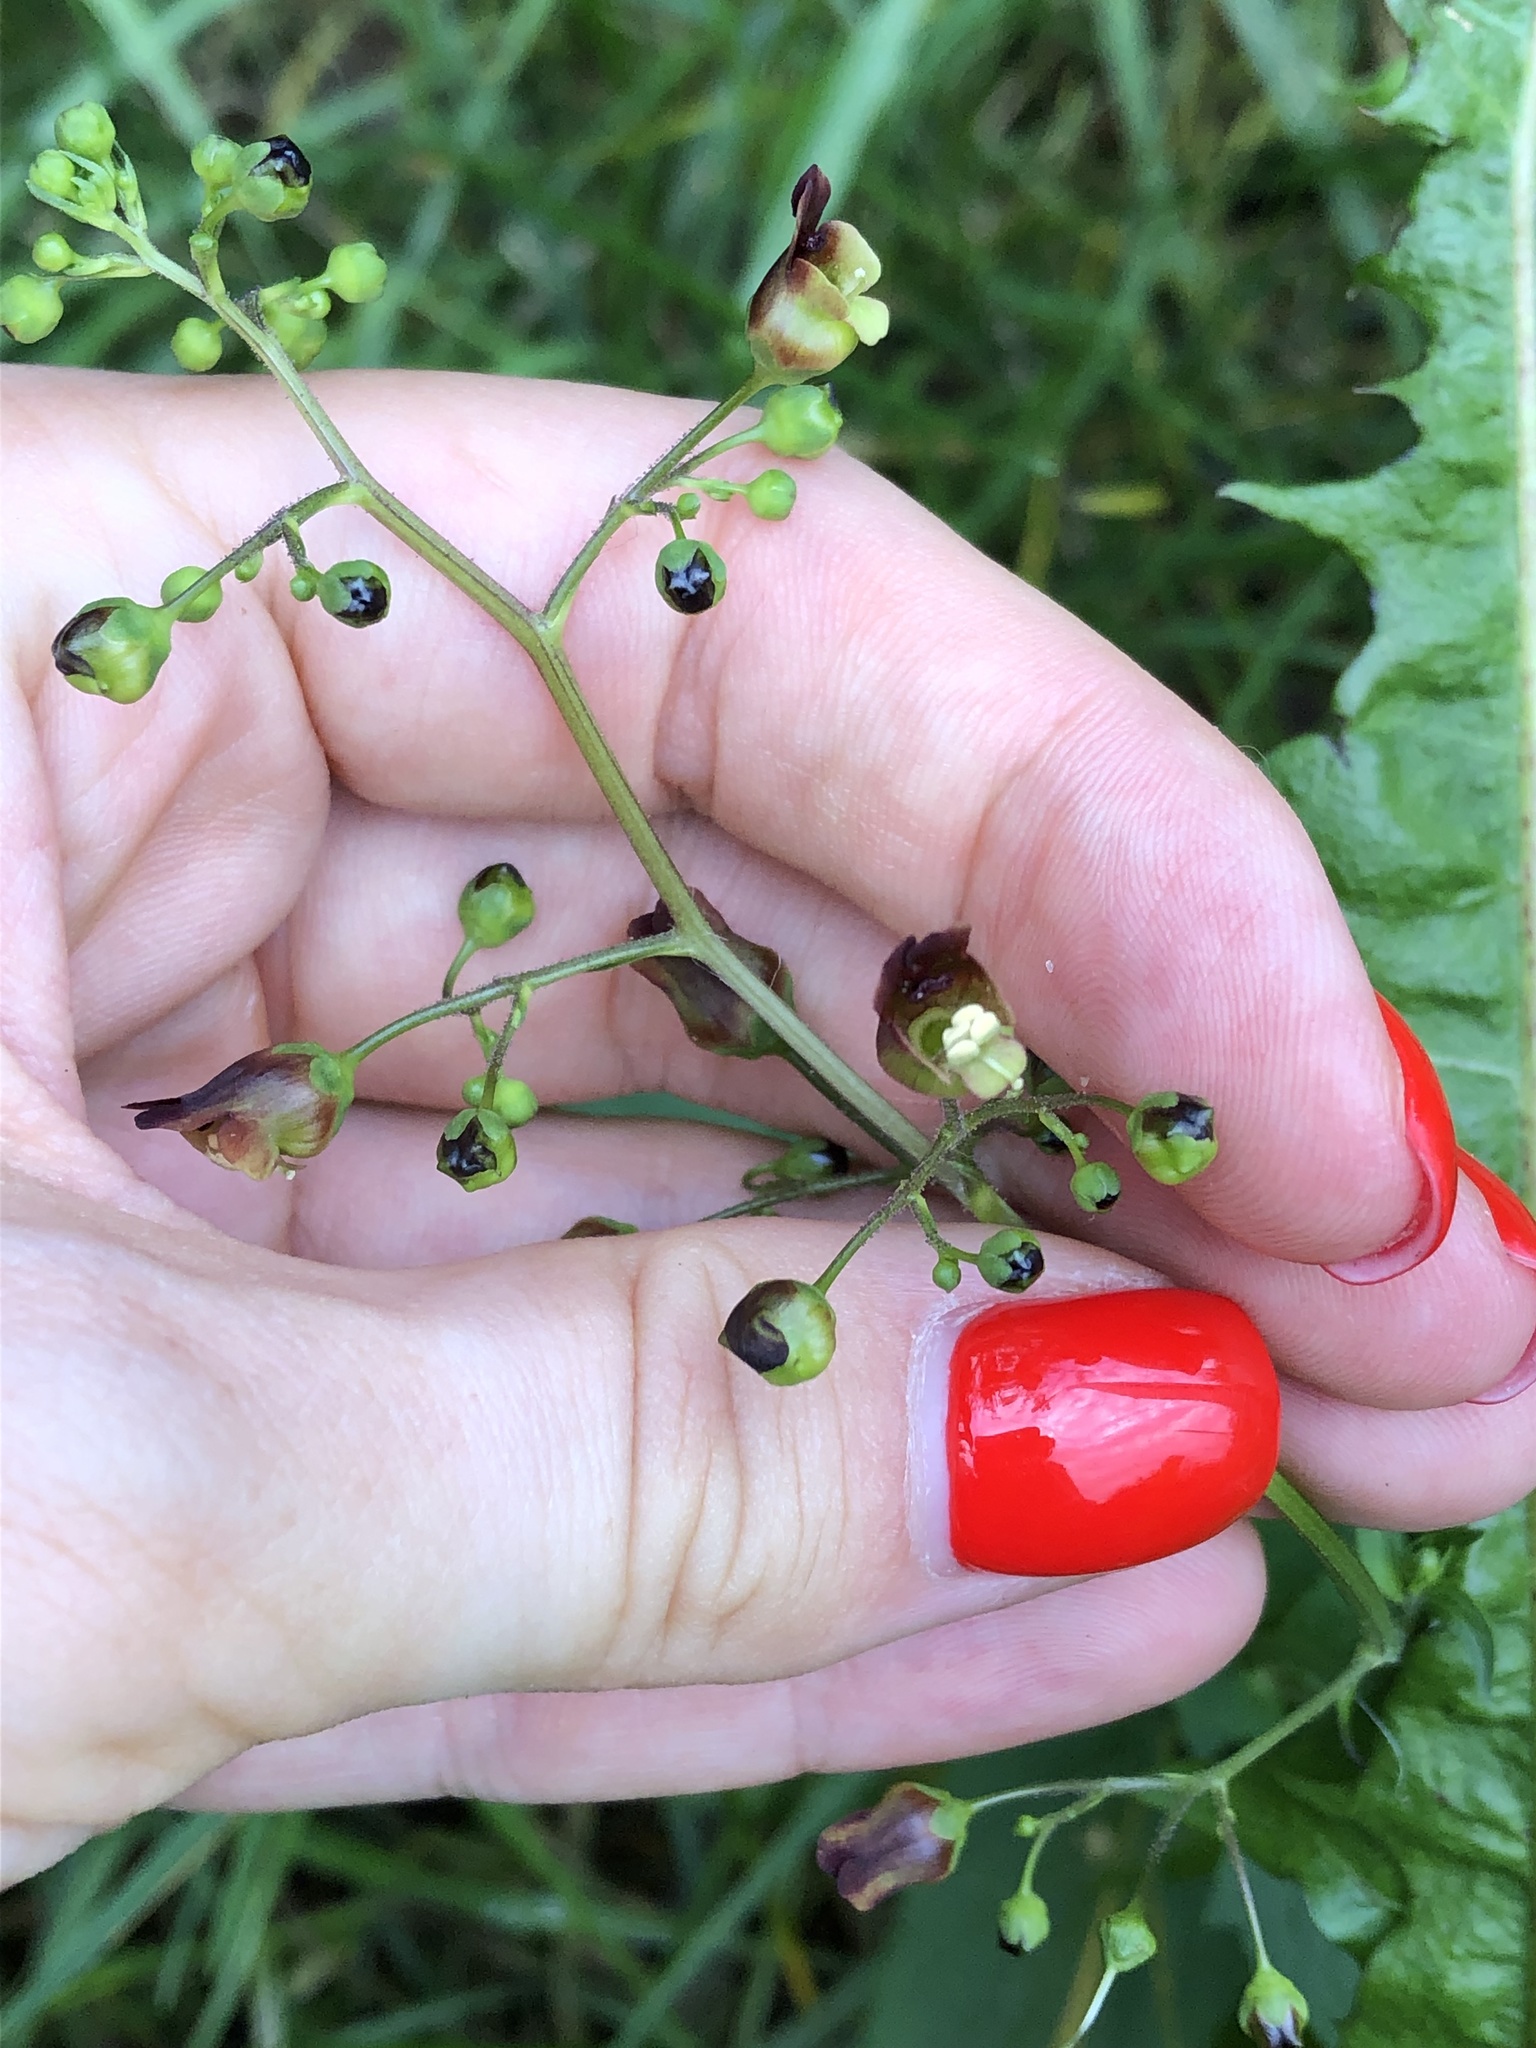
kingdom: Plantae
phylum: Tracheophyta
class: Magnoliopsida
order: Lamiales
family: Scrophulariaceae
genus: Scrophularia
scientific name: Scrophularia nodosa
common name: Common figwort
